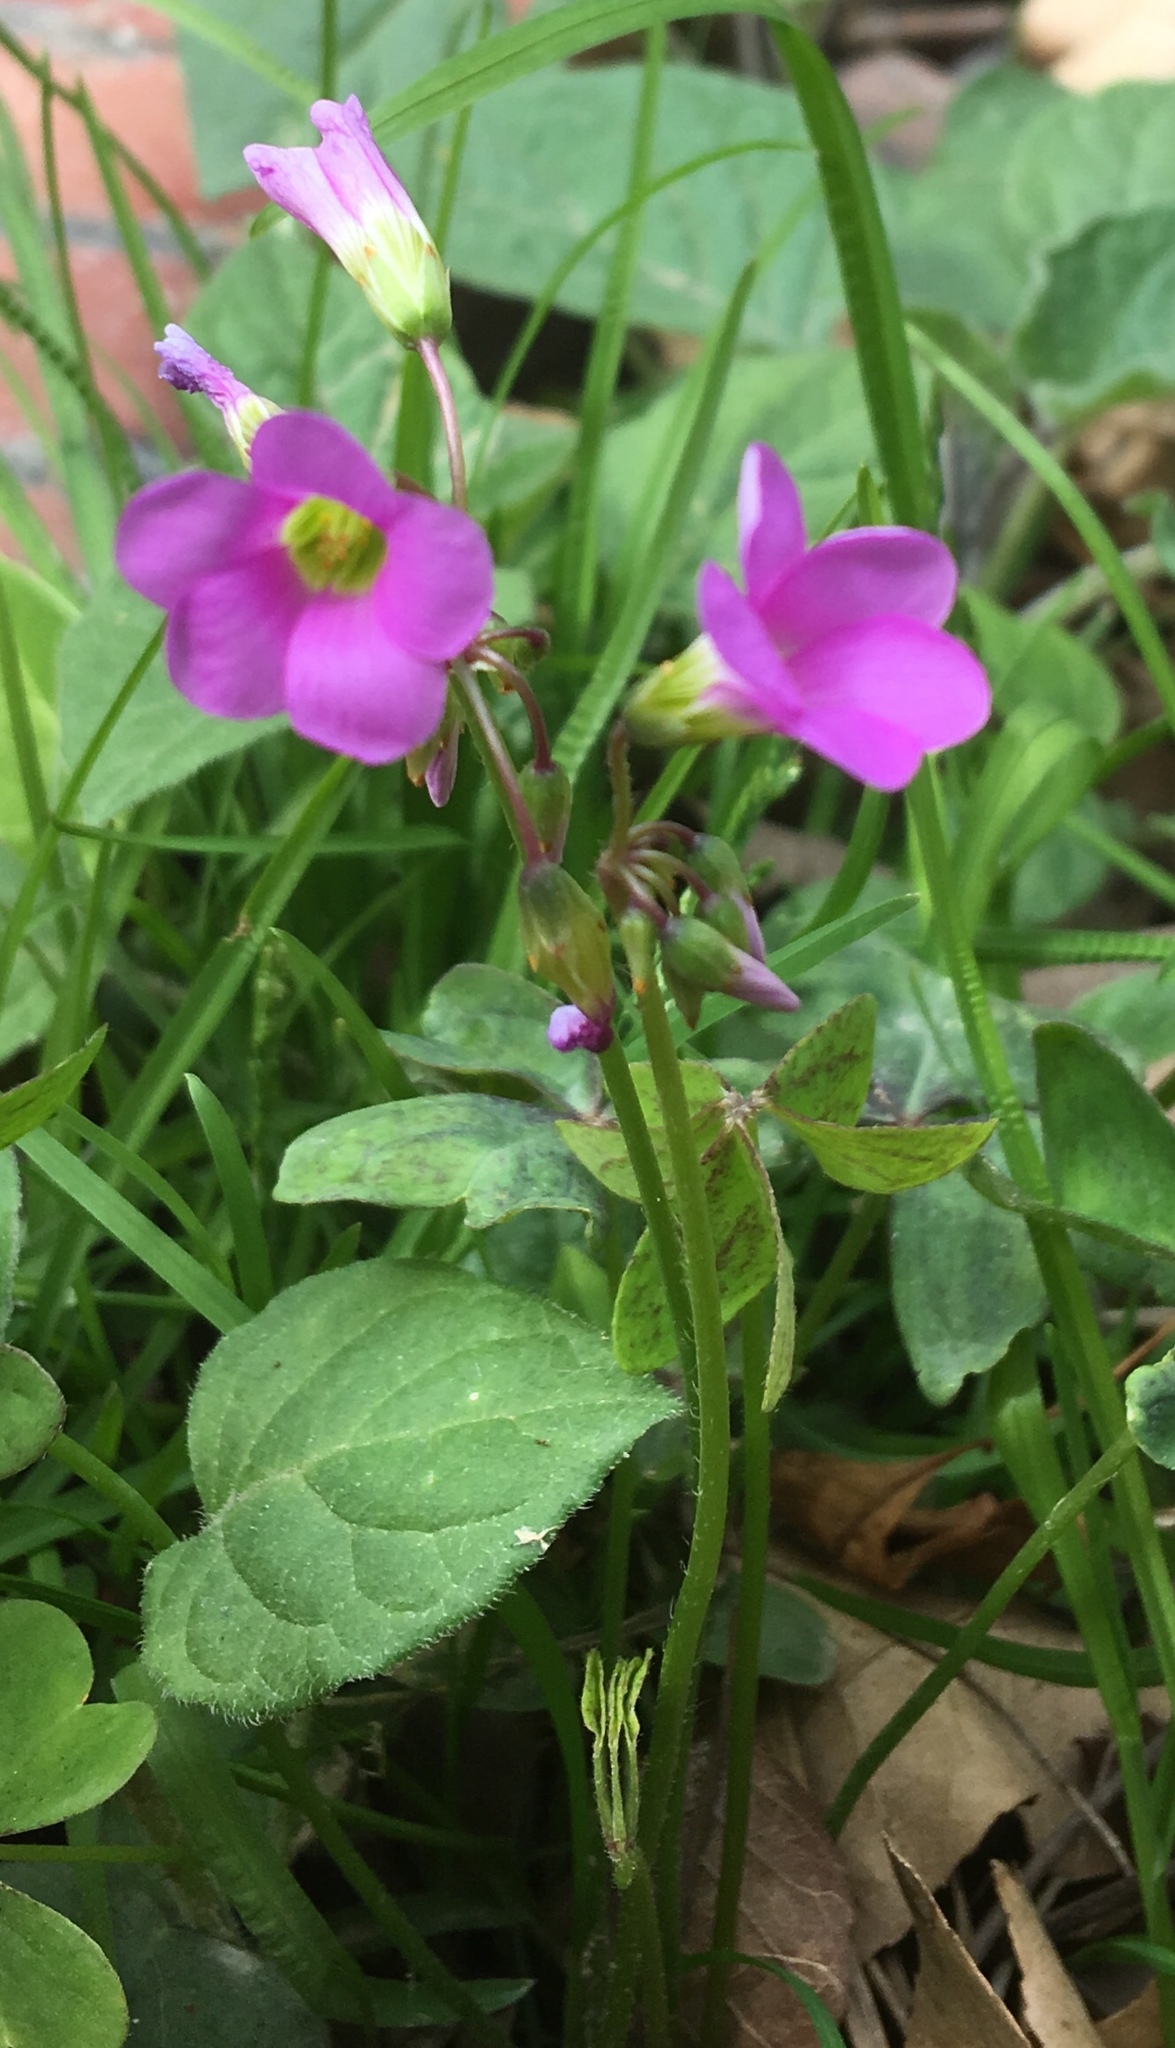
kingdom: Plantae
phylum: Tracheophyta
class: Magnoliopsida
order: Oxalidales
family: Oxalidaceae
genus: Oxalis
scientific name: Oxalis latifolia
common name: Garden pink-sorrel
